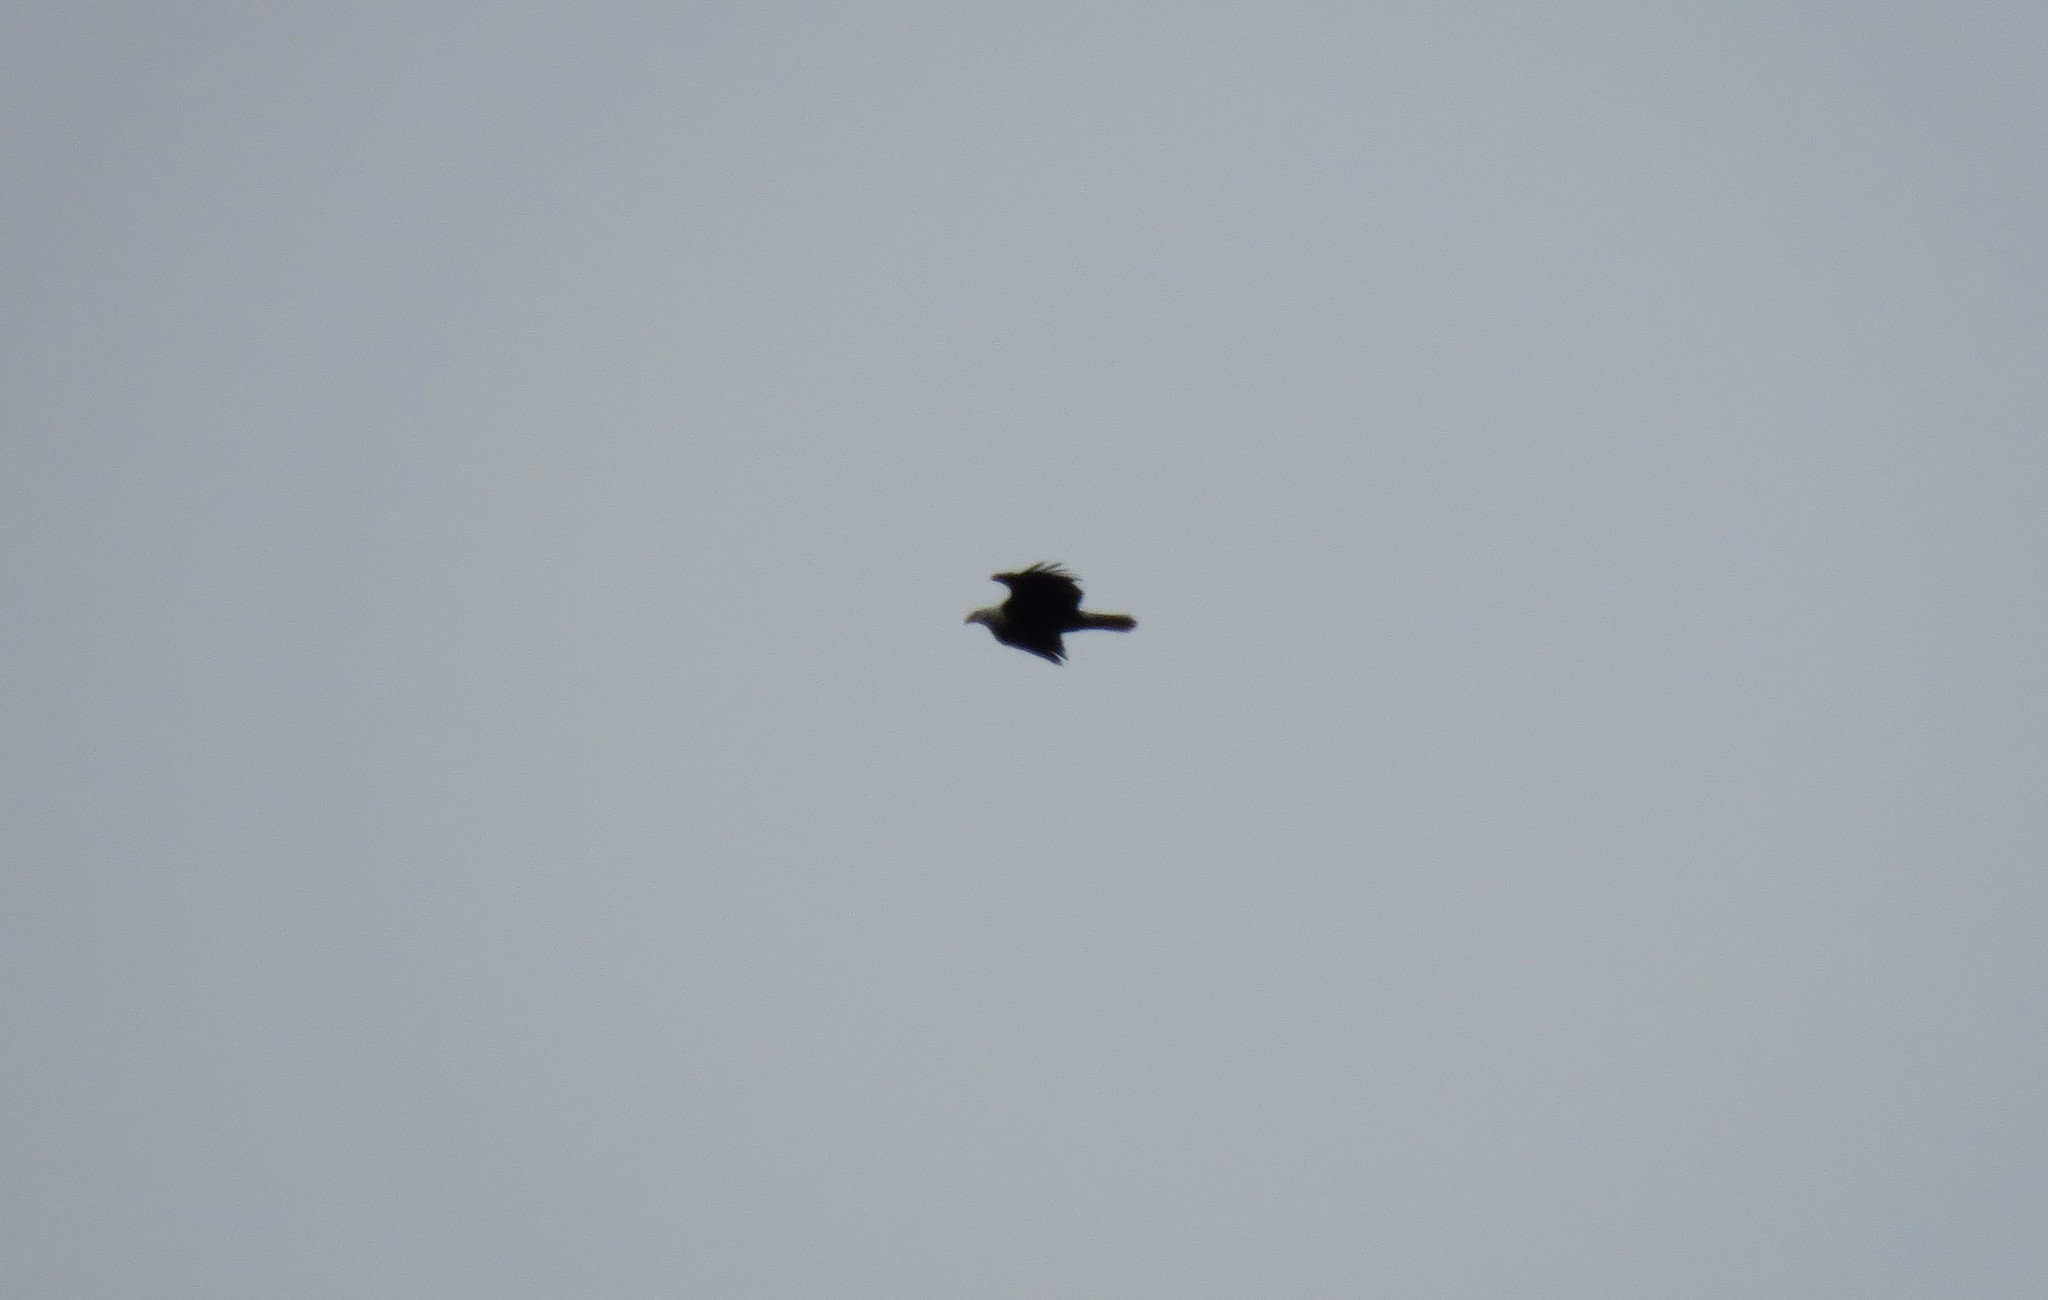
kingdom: Animalia
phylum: Chordata
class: Aves
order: Accipitriformes
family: Accipitridae
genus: Haliaeetus
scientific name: Haliaeetus leucocephalus
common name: Bald eagle
